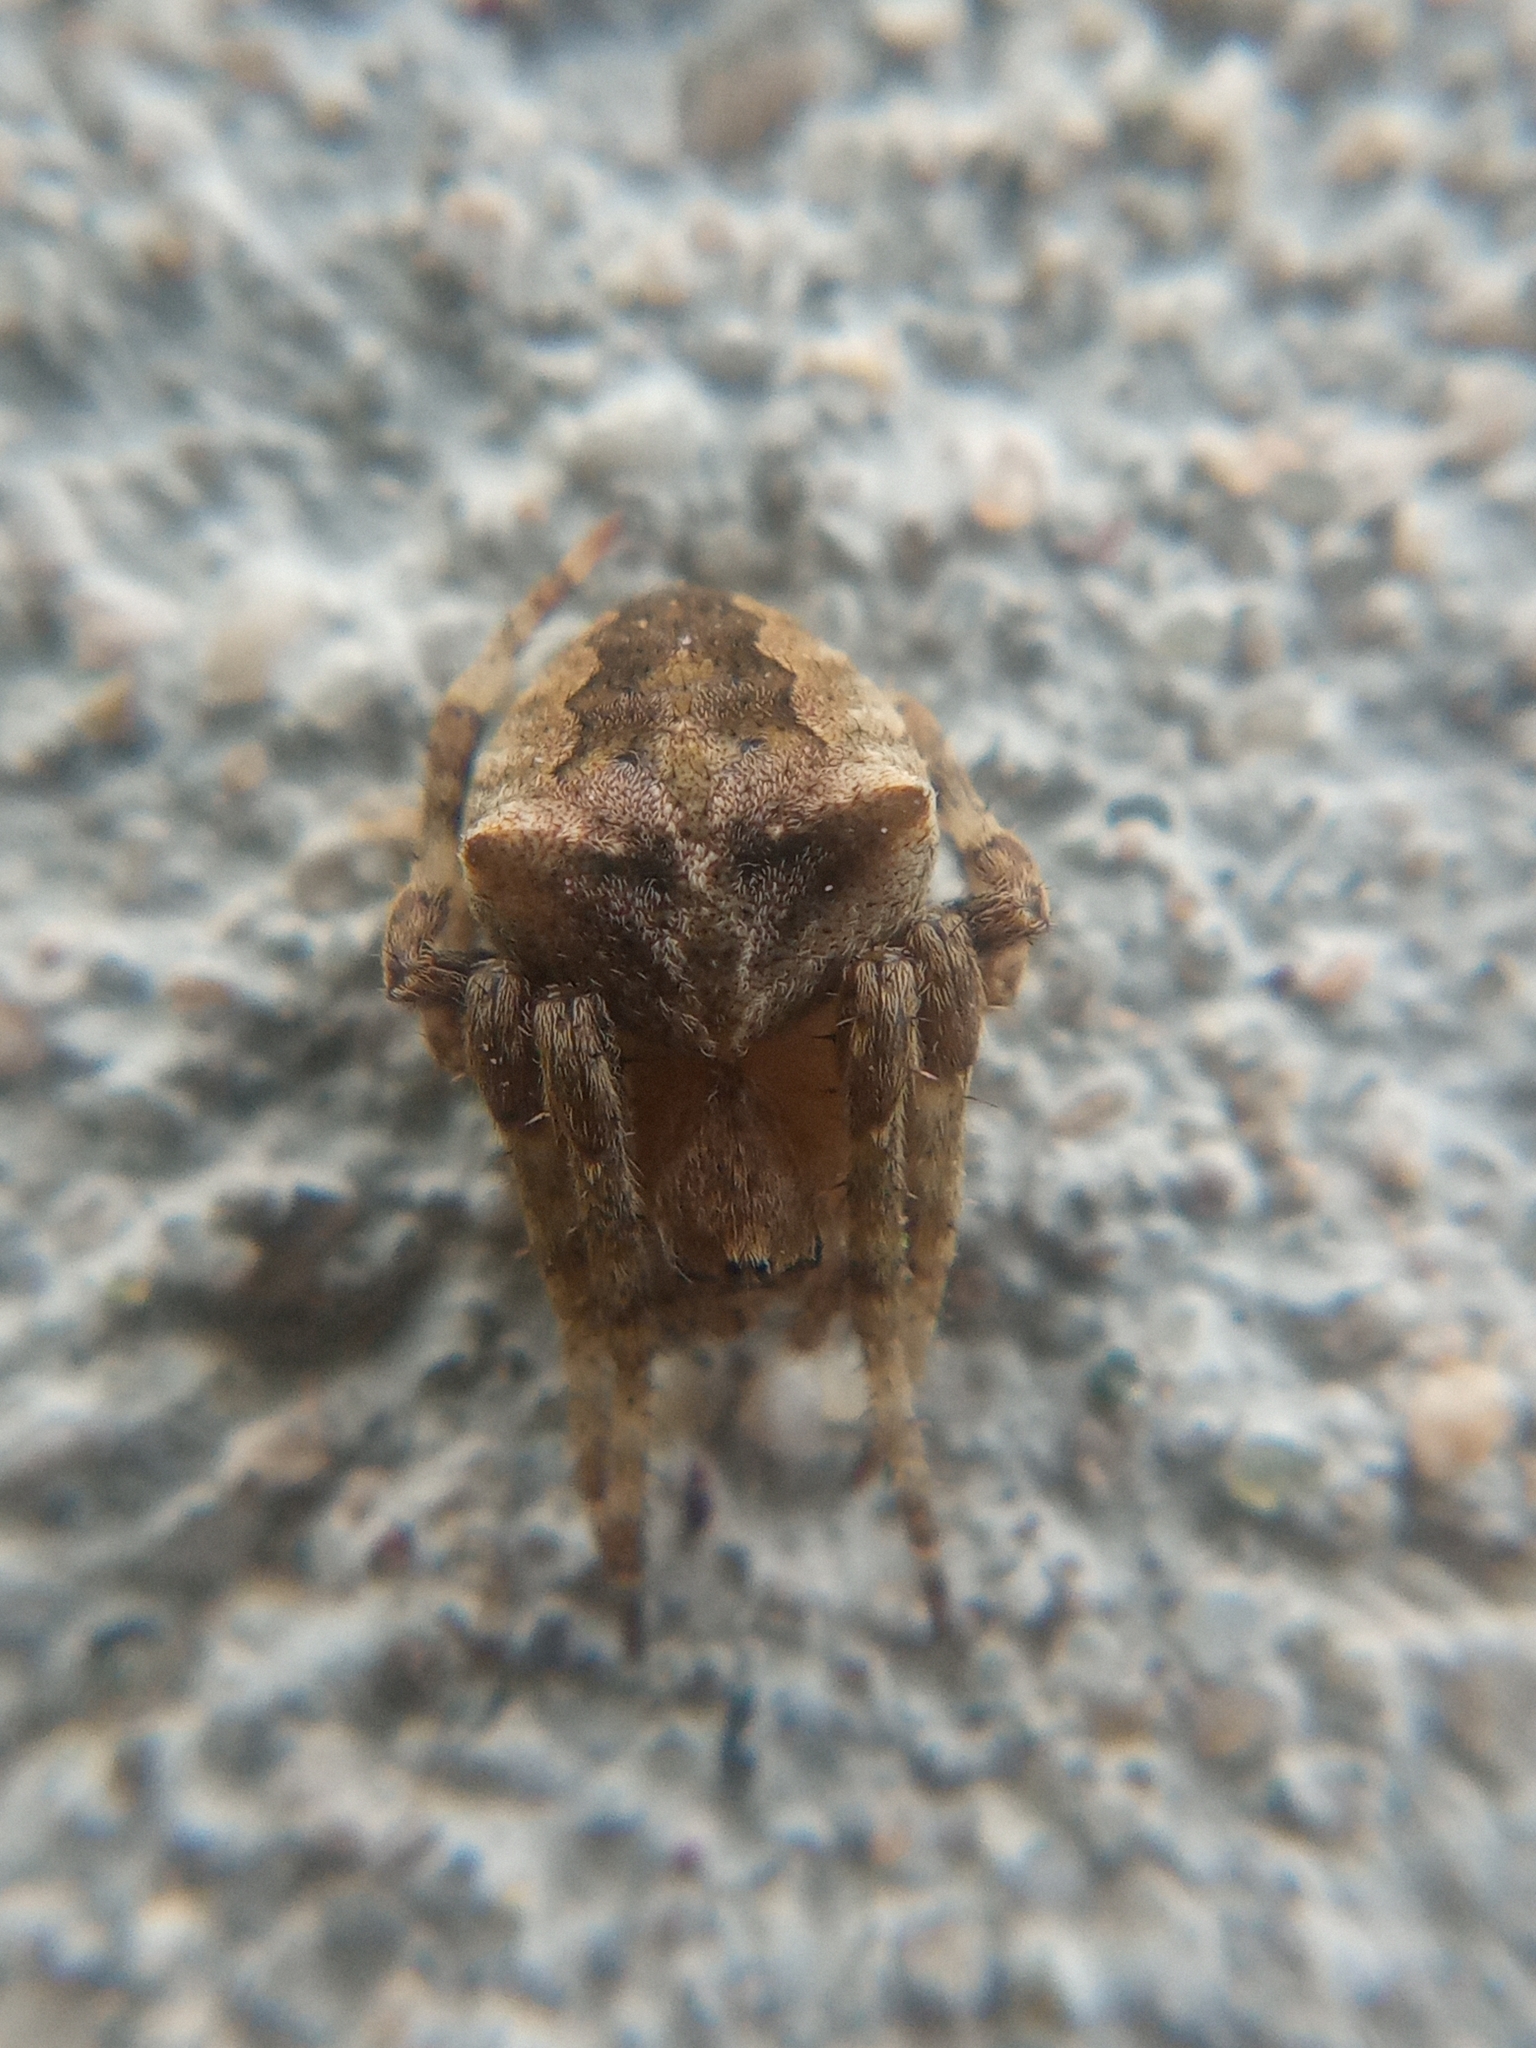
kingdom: Animalia
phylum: Arthropoda
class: Arachnida
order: Araneae
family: Araneidae
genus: Araneus
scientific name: Araneus angulatus
